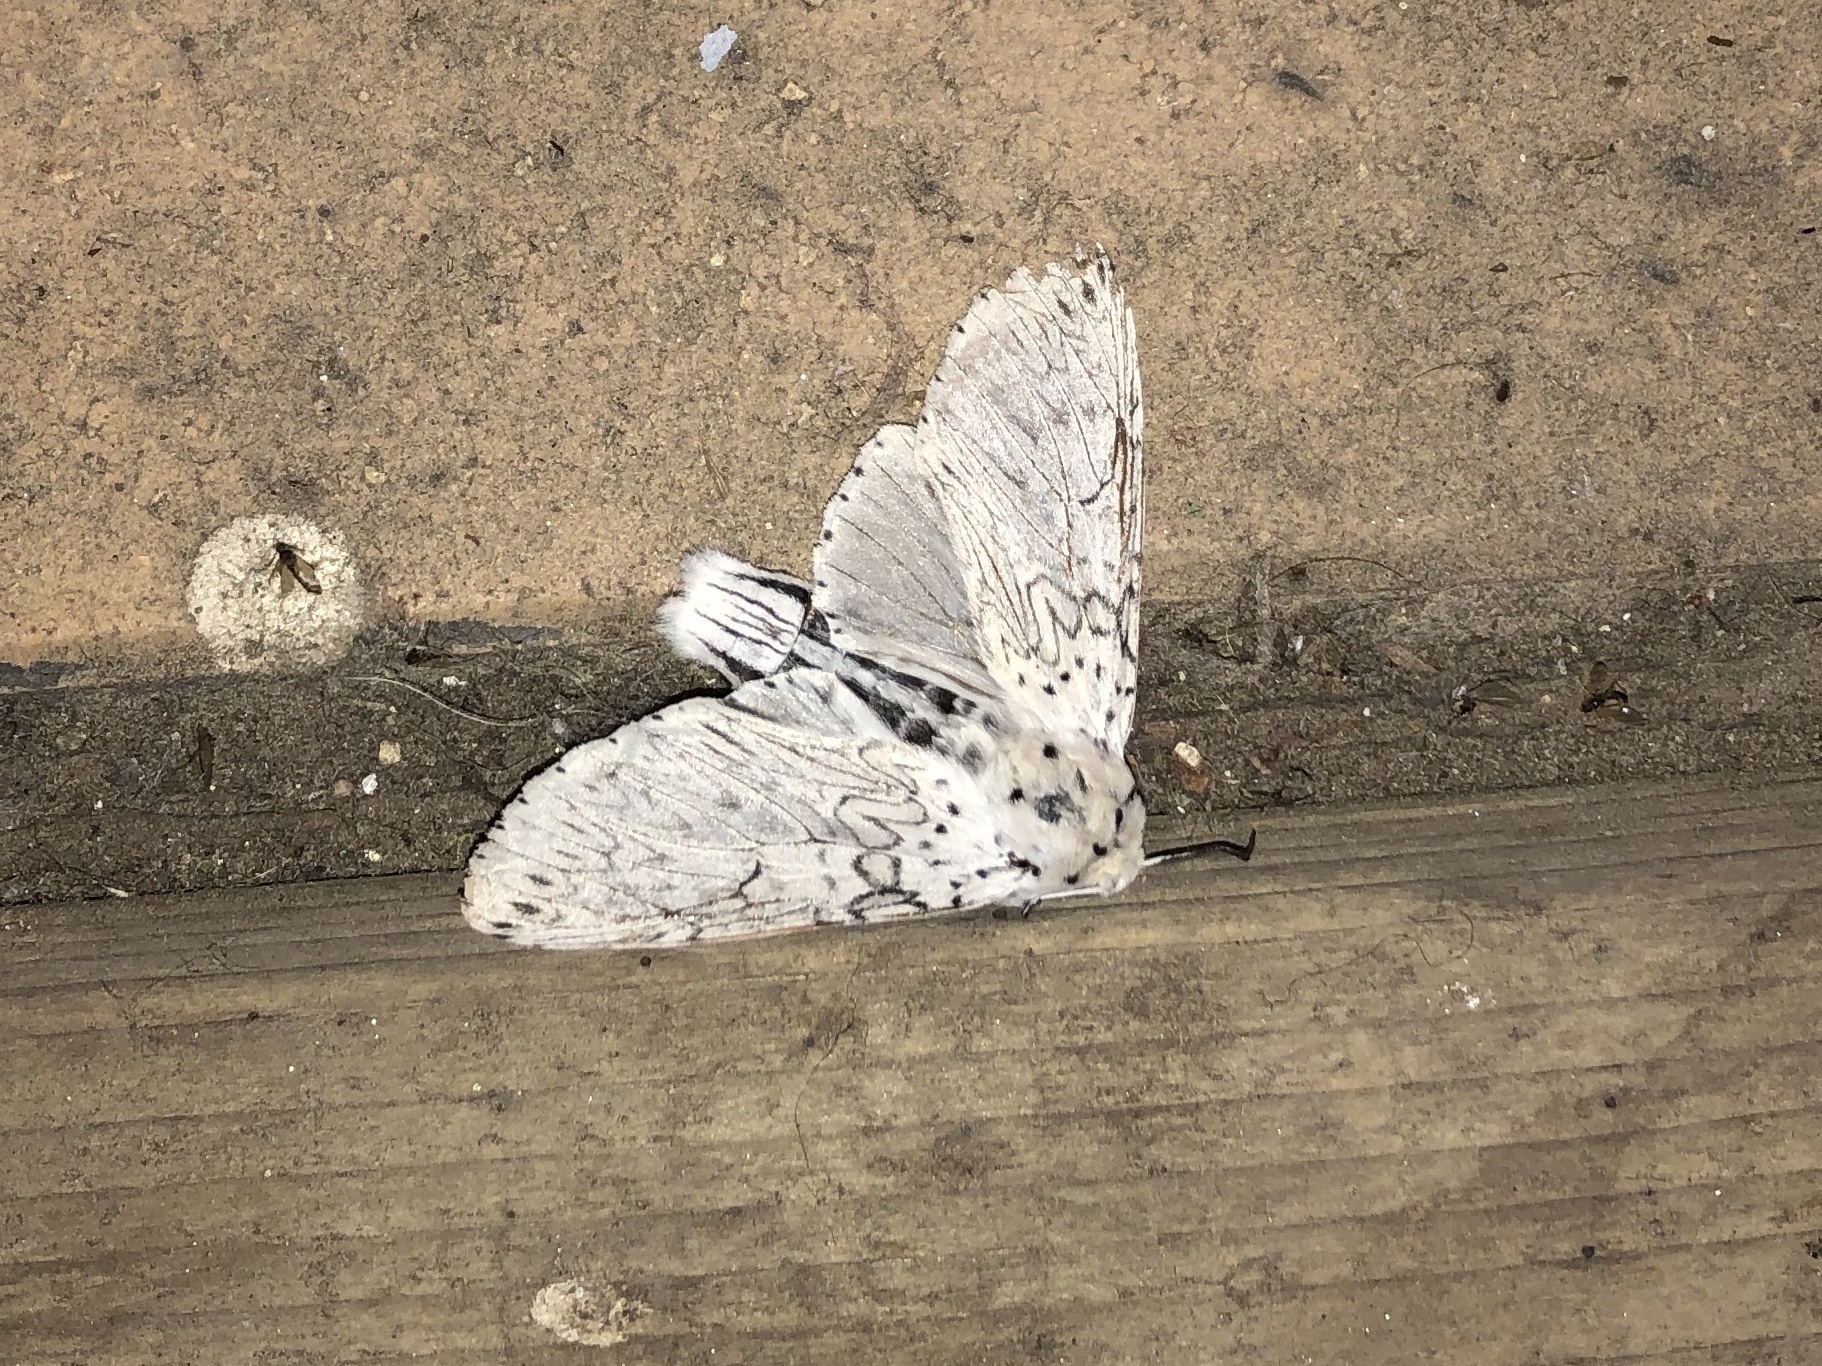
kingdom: Animalia
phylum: Arthropoda
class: Insecta
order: Lepidoptera
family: Notodontidae
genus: Cerura
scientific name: Cerura erminea
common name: Lesser puss moth
